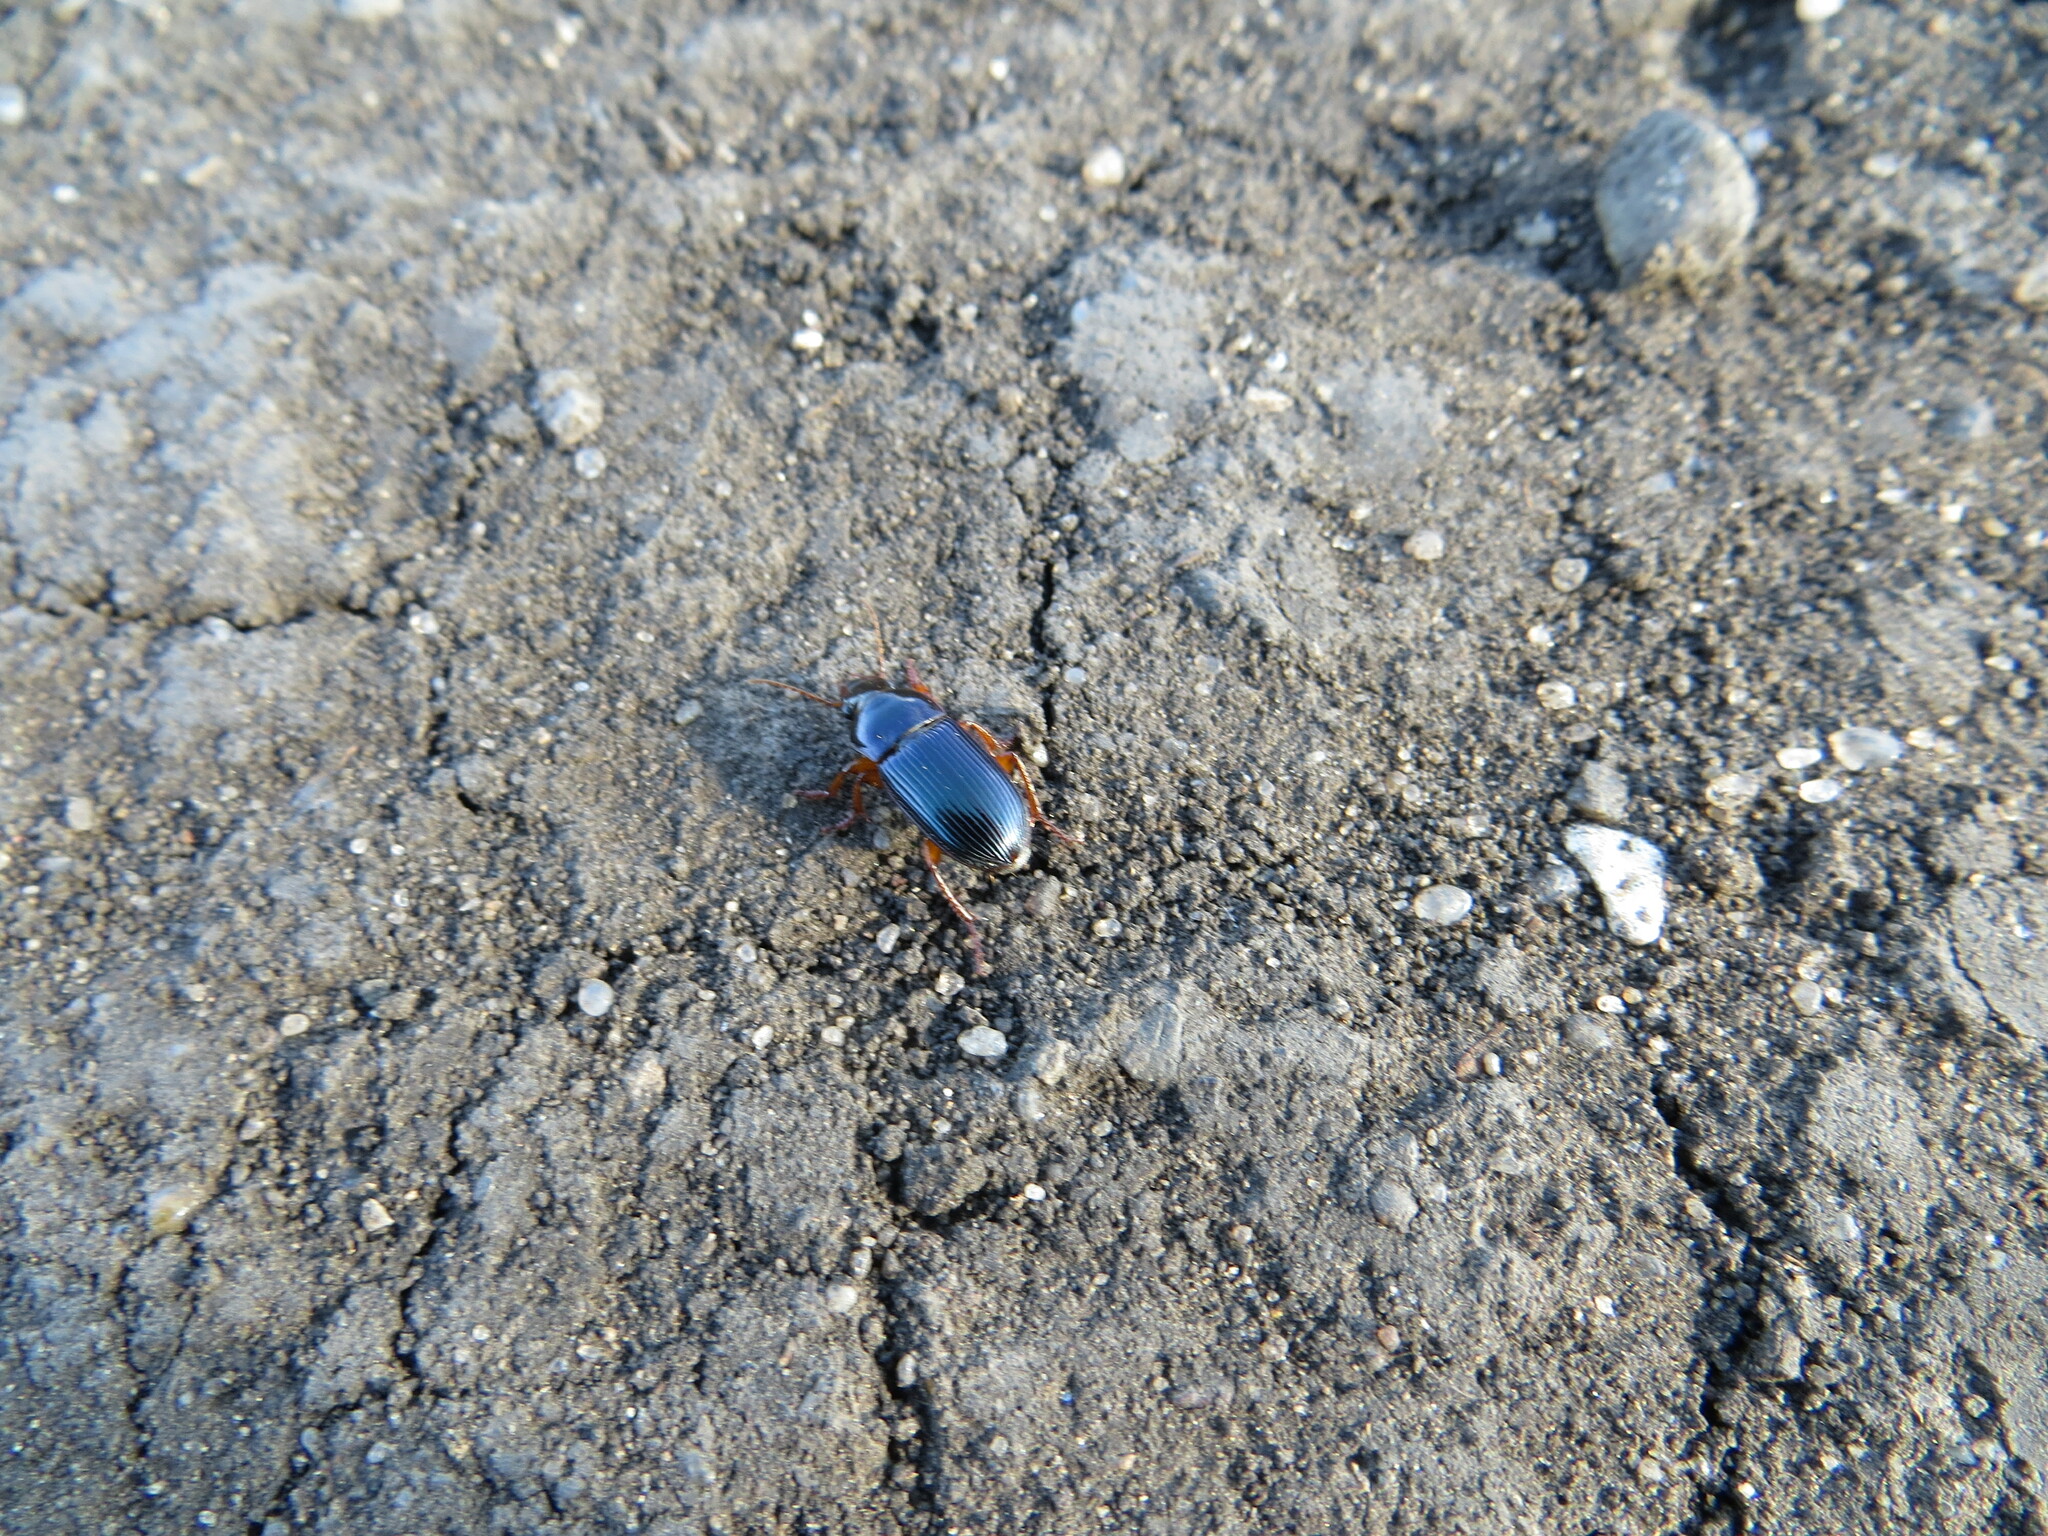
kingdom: Animalia
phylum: Arthropoda
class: Insecta
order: Coleoptera
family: Carabidae
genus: Harpalus
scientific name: Harpalus rubripes
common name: Red-legged harp ground beetle
